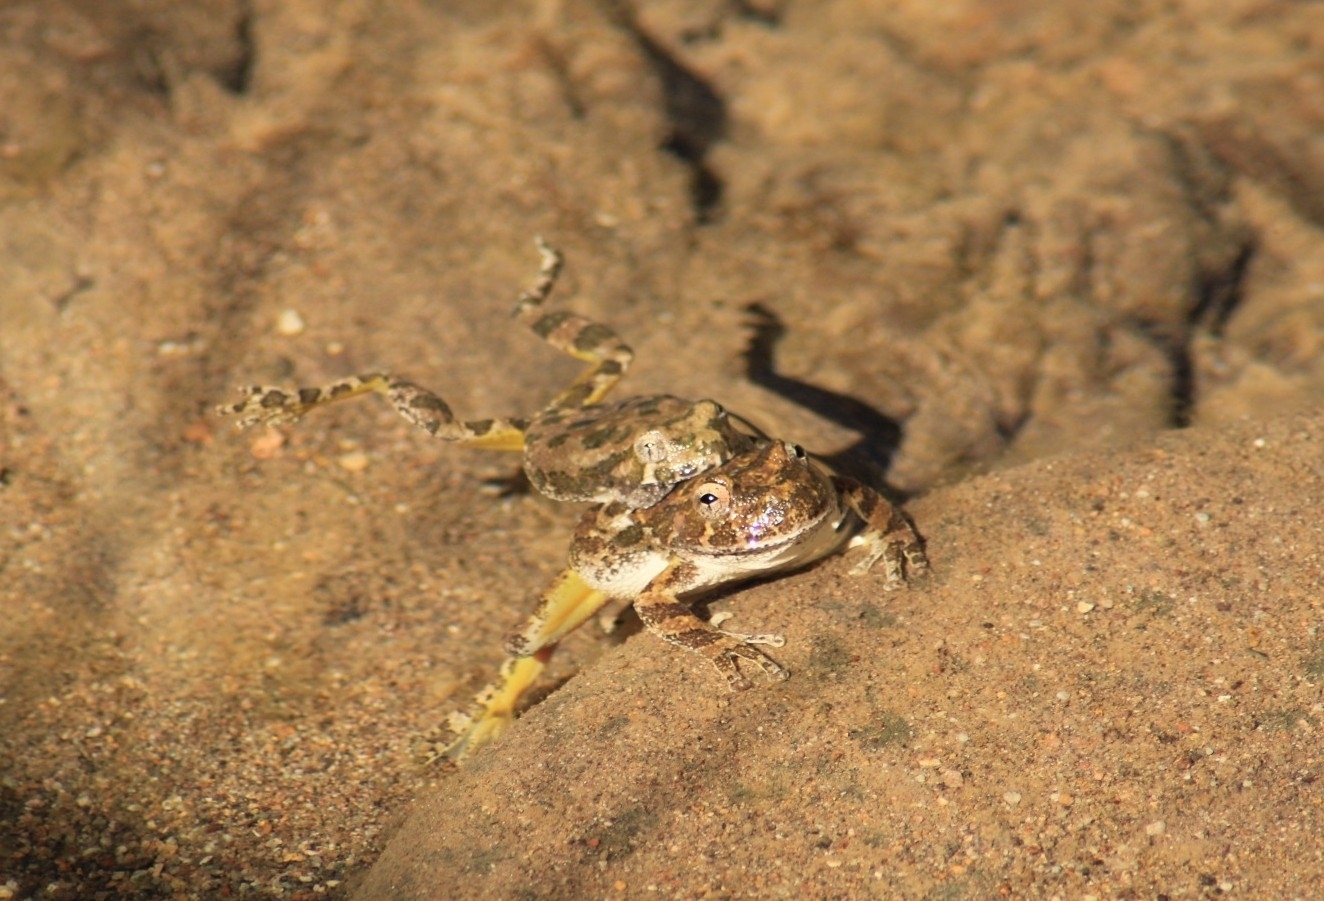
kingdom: Animalia
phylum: Chordata
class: Amphibia
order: Anura
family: Hylidae
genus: Dryophytes
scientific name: Dryophytes arenicolor
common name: Canyon treefrog
